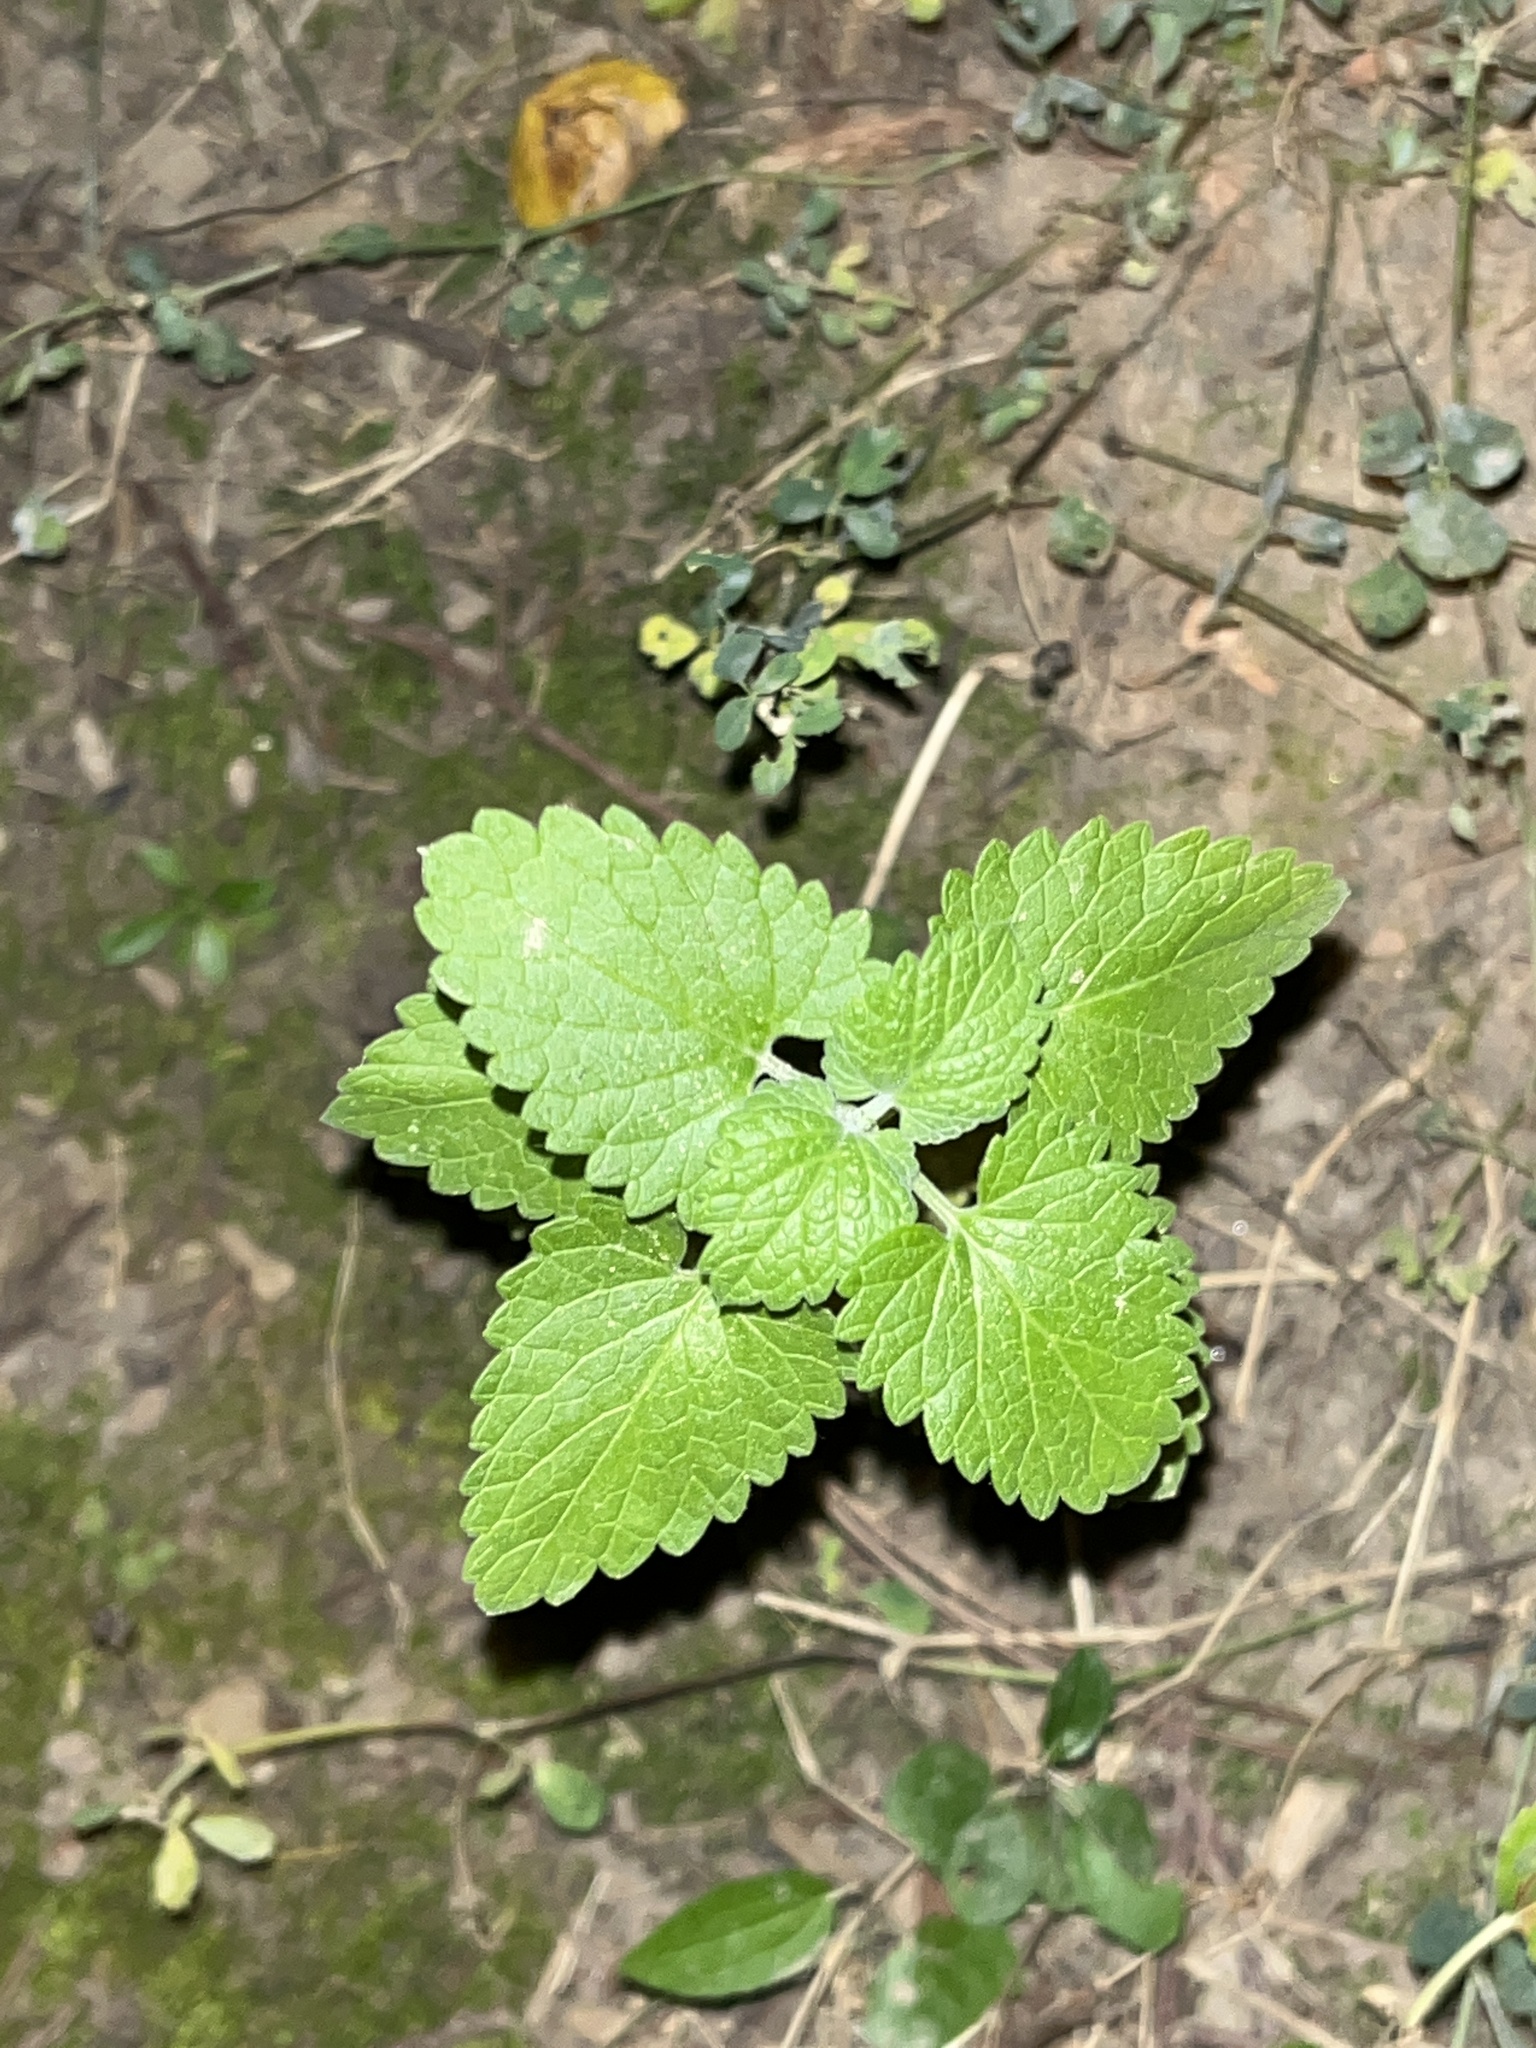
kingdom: Plantae
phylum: Tracheophyta
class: Magnoliopsida
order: Lamiales
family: Lamiaceae
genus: Nepeta
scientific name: Nepeta cataria
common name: Catnip
